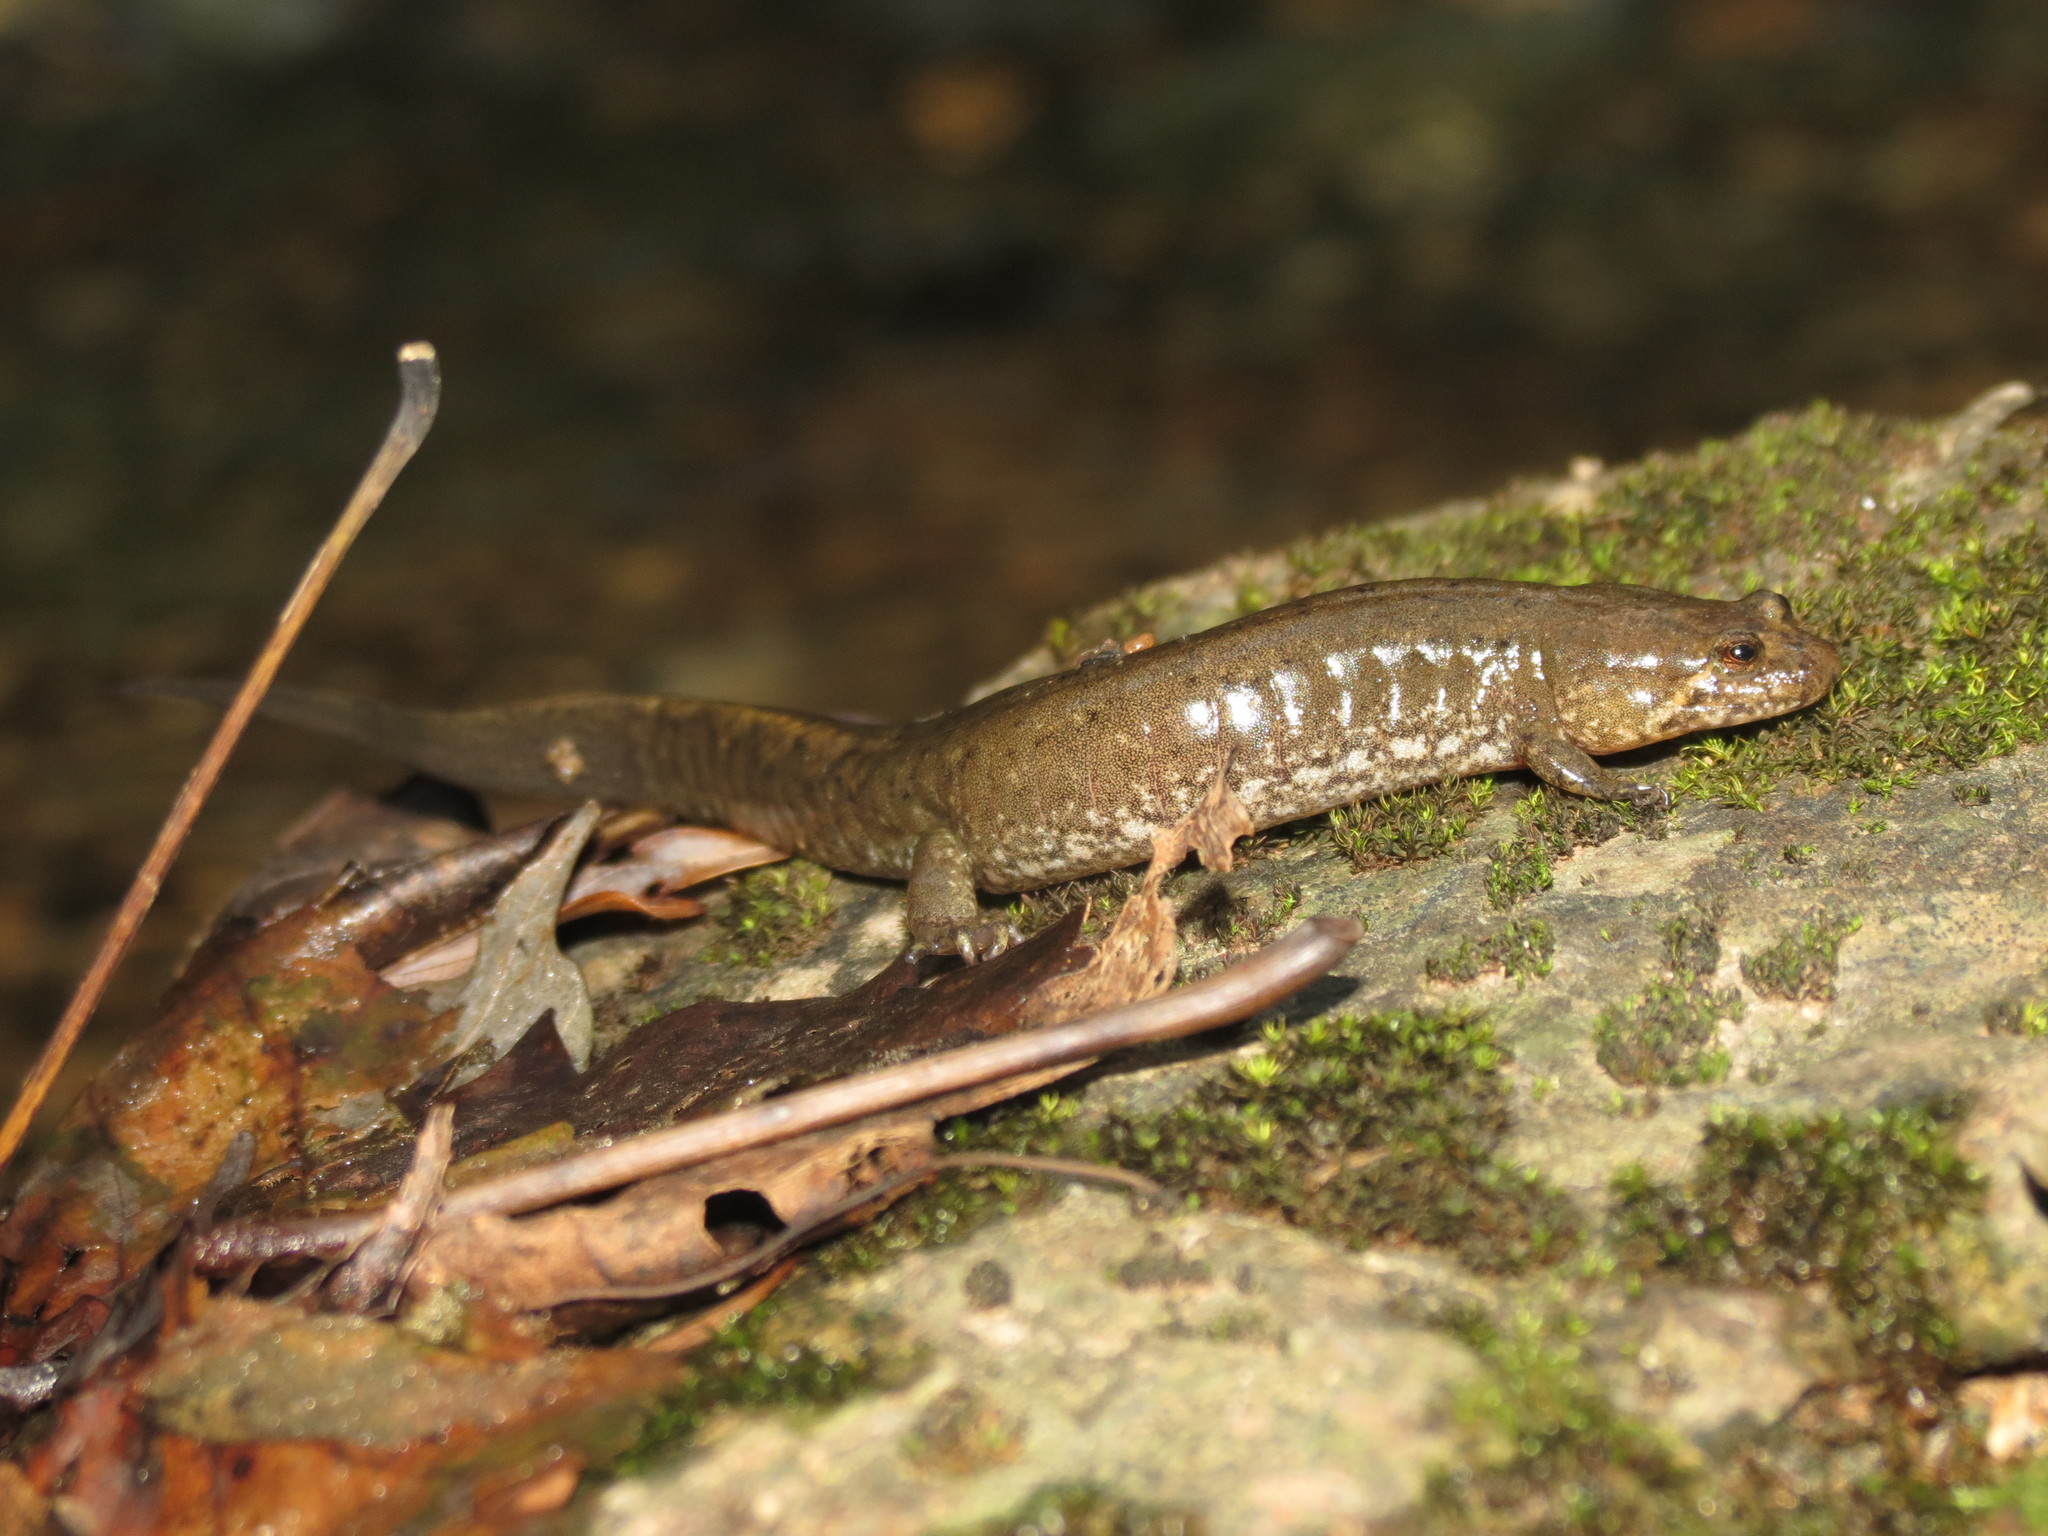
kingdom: Animalia
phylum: Chordata
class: Amphibia
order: Caudata
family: Plethodontidae
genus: Desmognathus
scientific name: Desmognathus conanti
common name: Spotted dusky salamander
